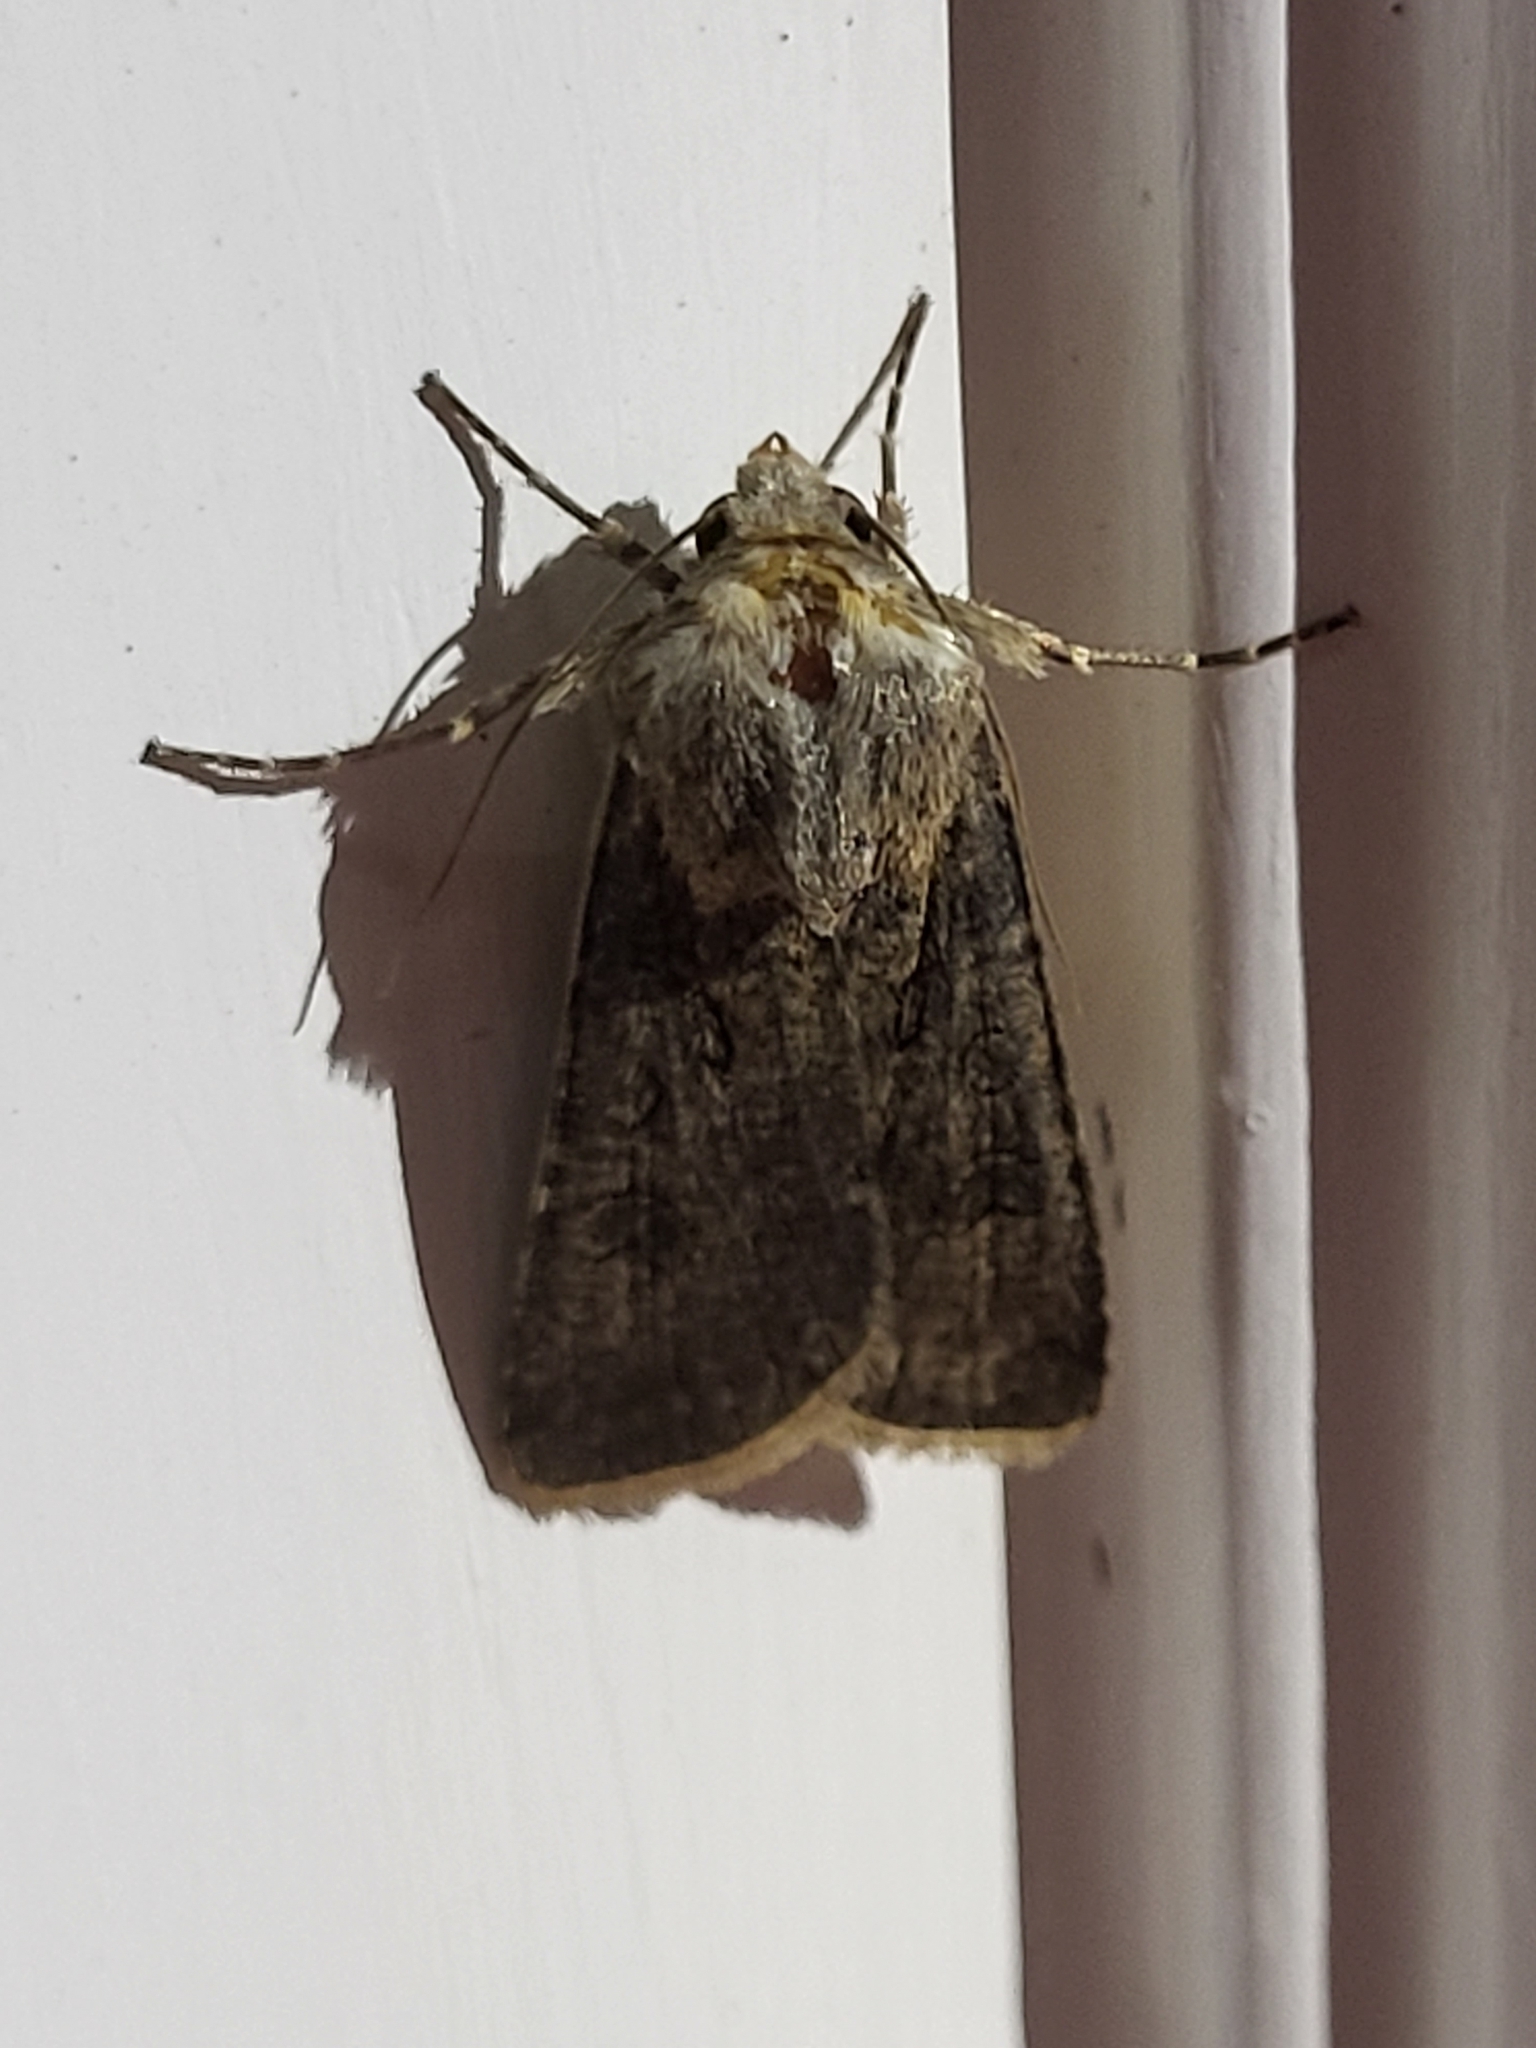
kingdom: Animalia
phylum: Arthropoda
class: Insecta
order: Lepidoptera
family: Noctuidae
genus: Agrotis
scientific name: Agrotis segetum
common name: Turnip moth
